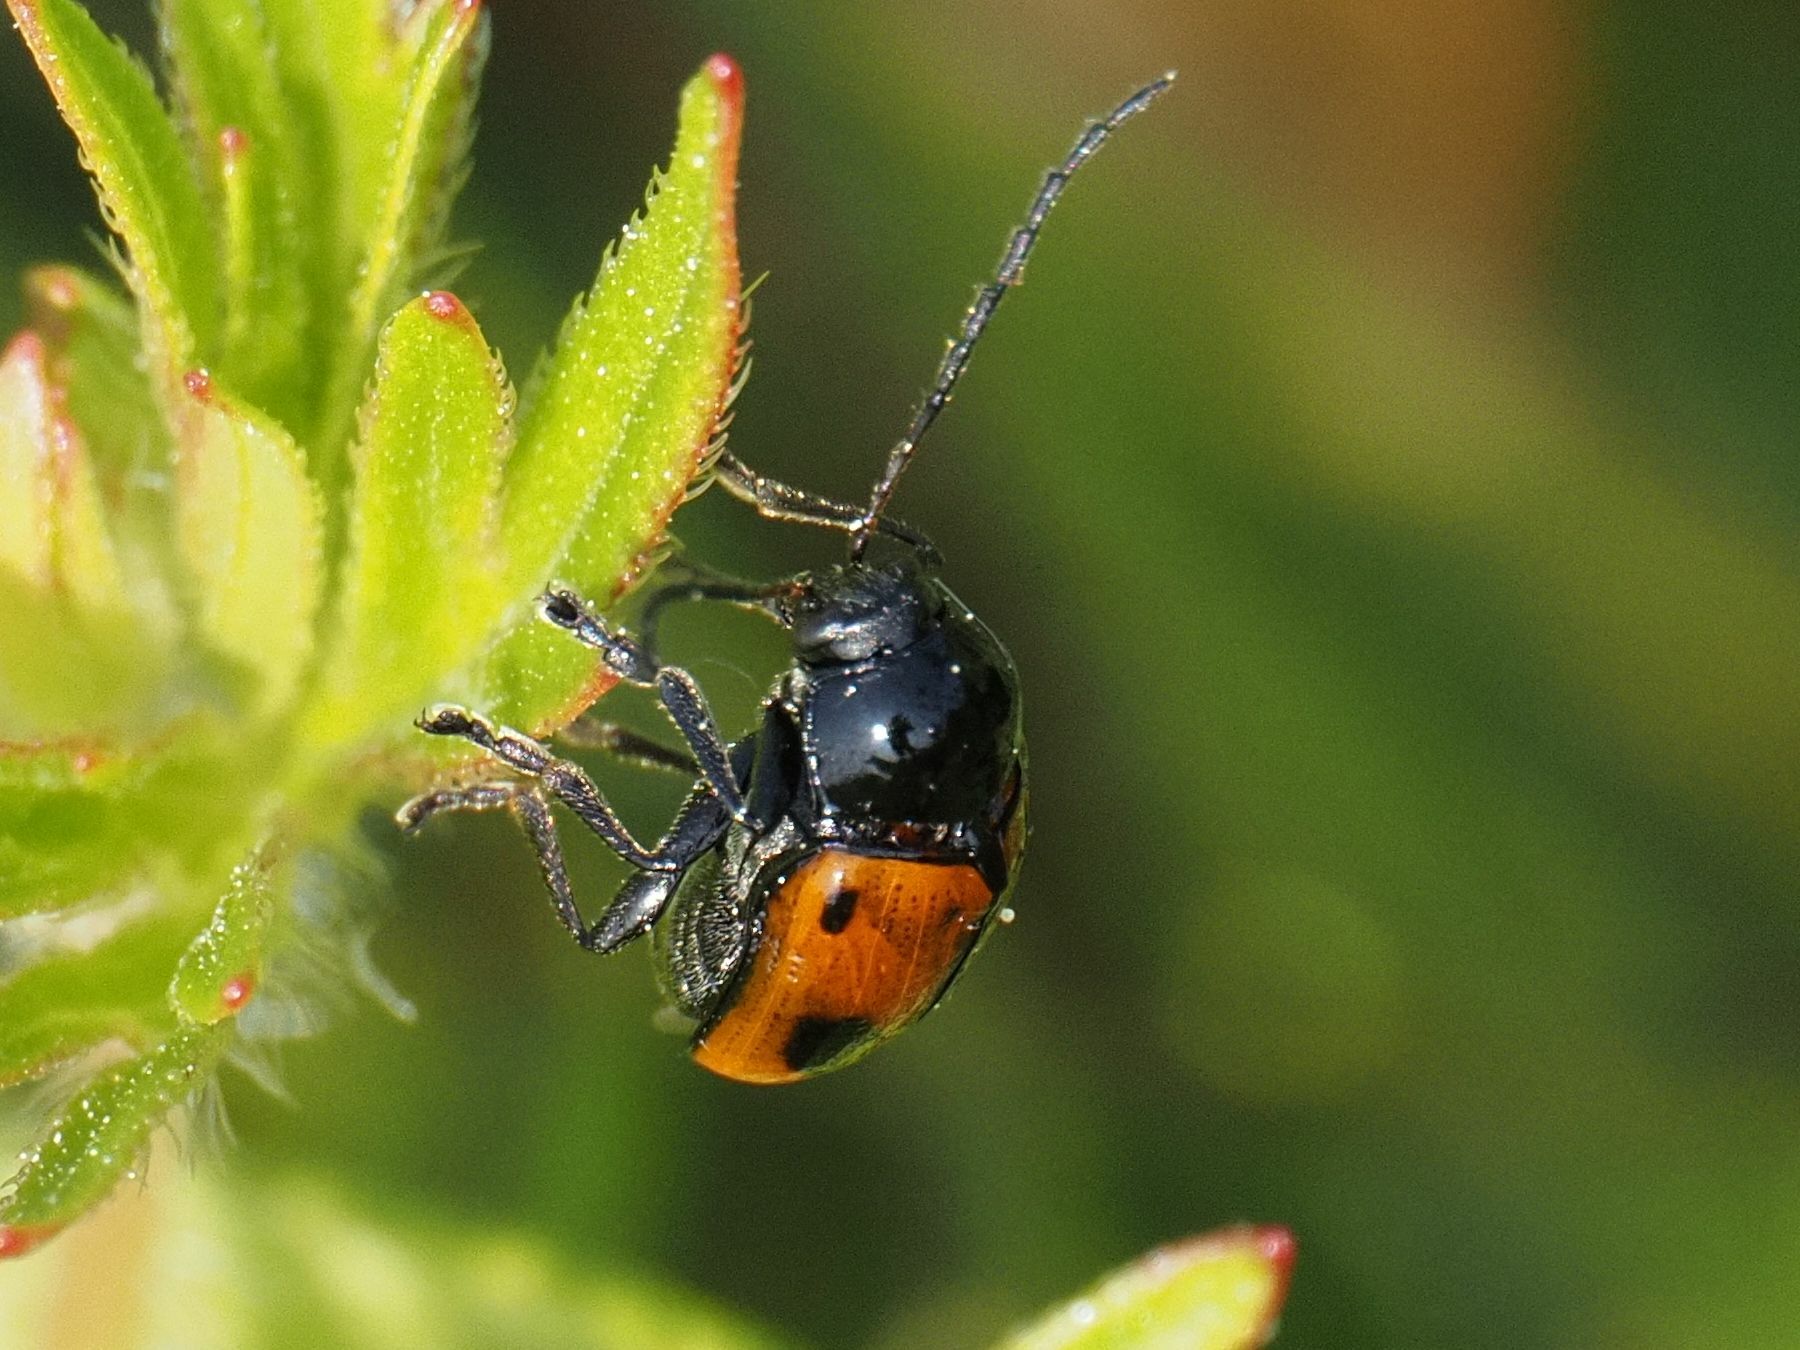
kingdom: Animalia
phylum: Arthropoda
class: Insecta
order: Coleoptera
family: Chrysomelidae
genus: Chiridopsis
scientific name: Chiridopsis bipunctata
